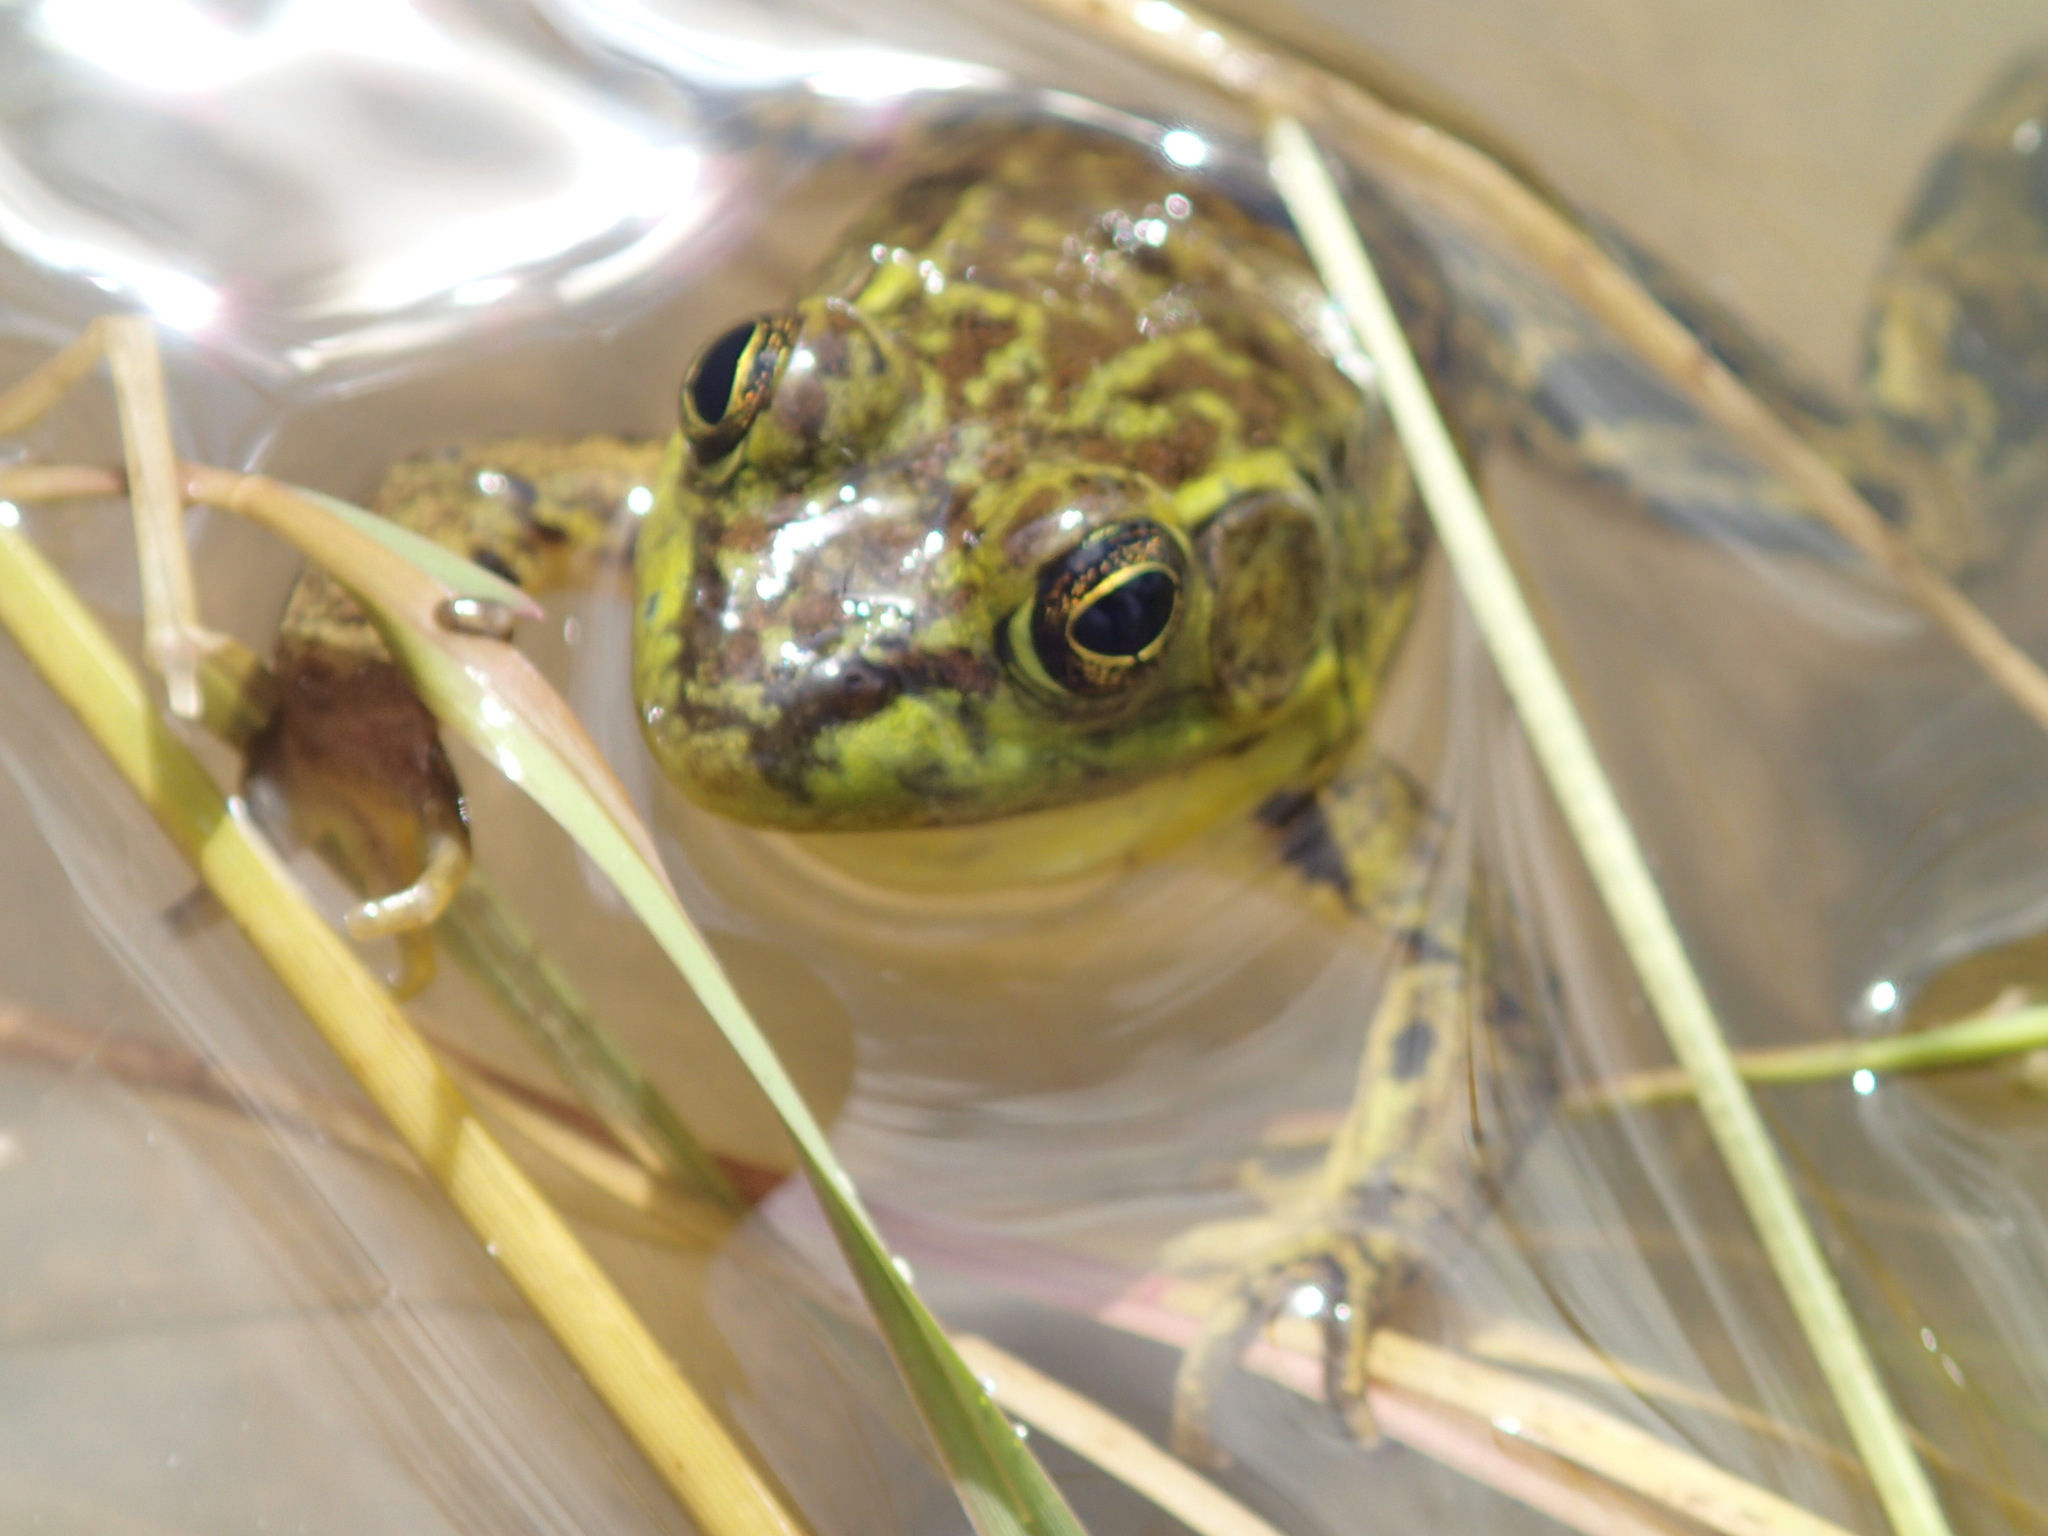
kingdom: Animalia
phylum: Chordata
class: Amphibia
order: Anura
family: Ranidae
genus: Lithobates
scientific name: Lithobates septentrionalis
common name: Mink frog
